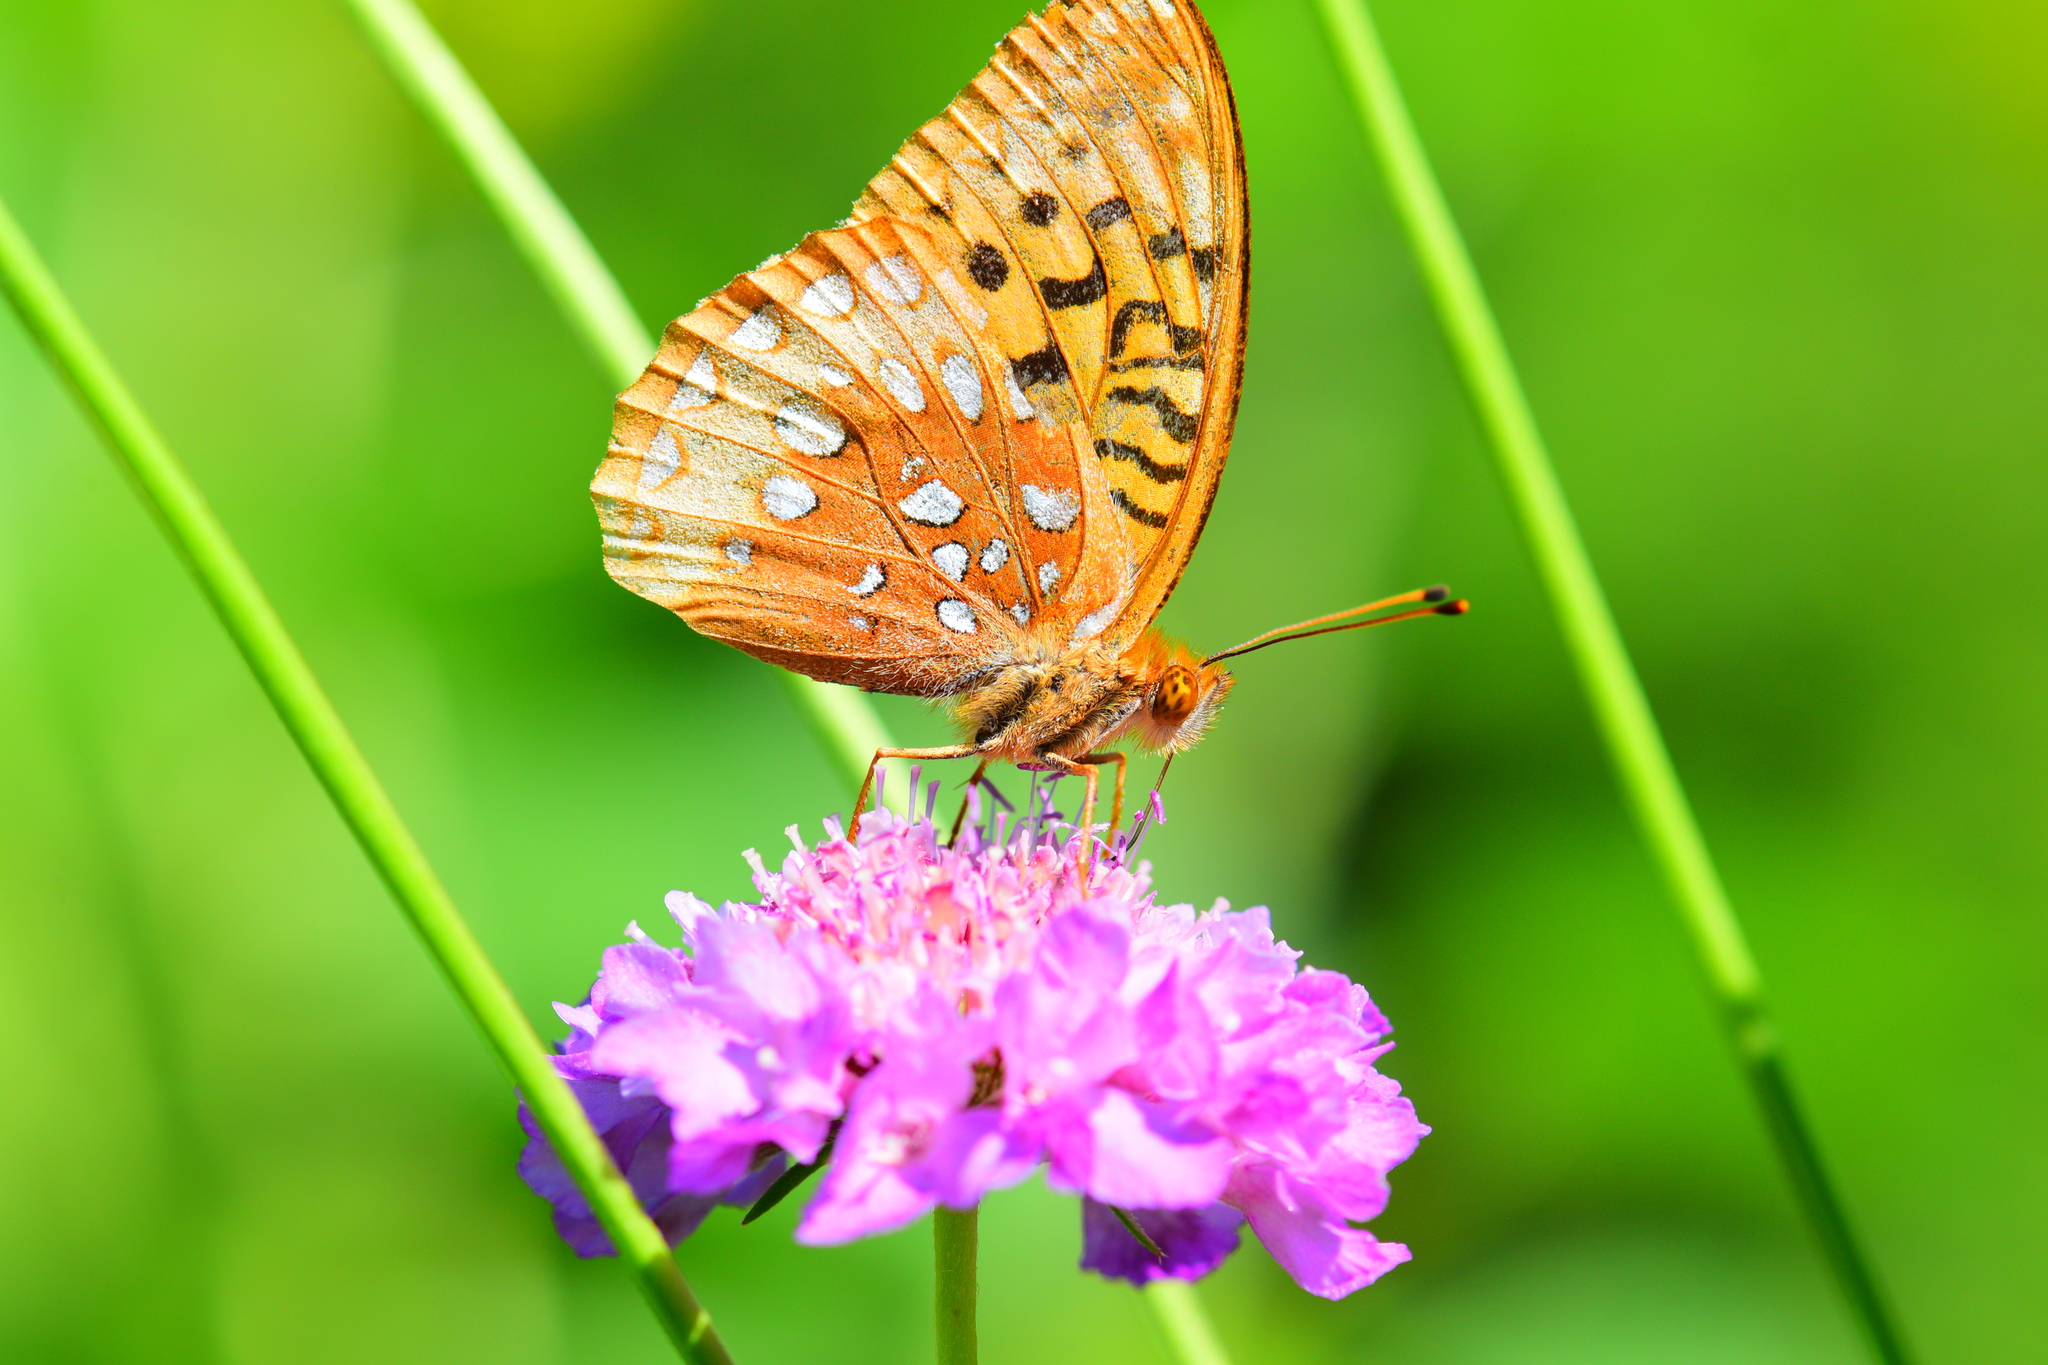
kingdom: Animalia
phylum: Arthropoda
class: Insecta
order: Lepidoptera
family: Nymphalidae
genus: Speyeria
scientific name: Speyeria cybele
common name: Great spangled fritillary
